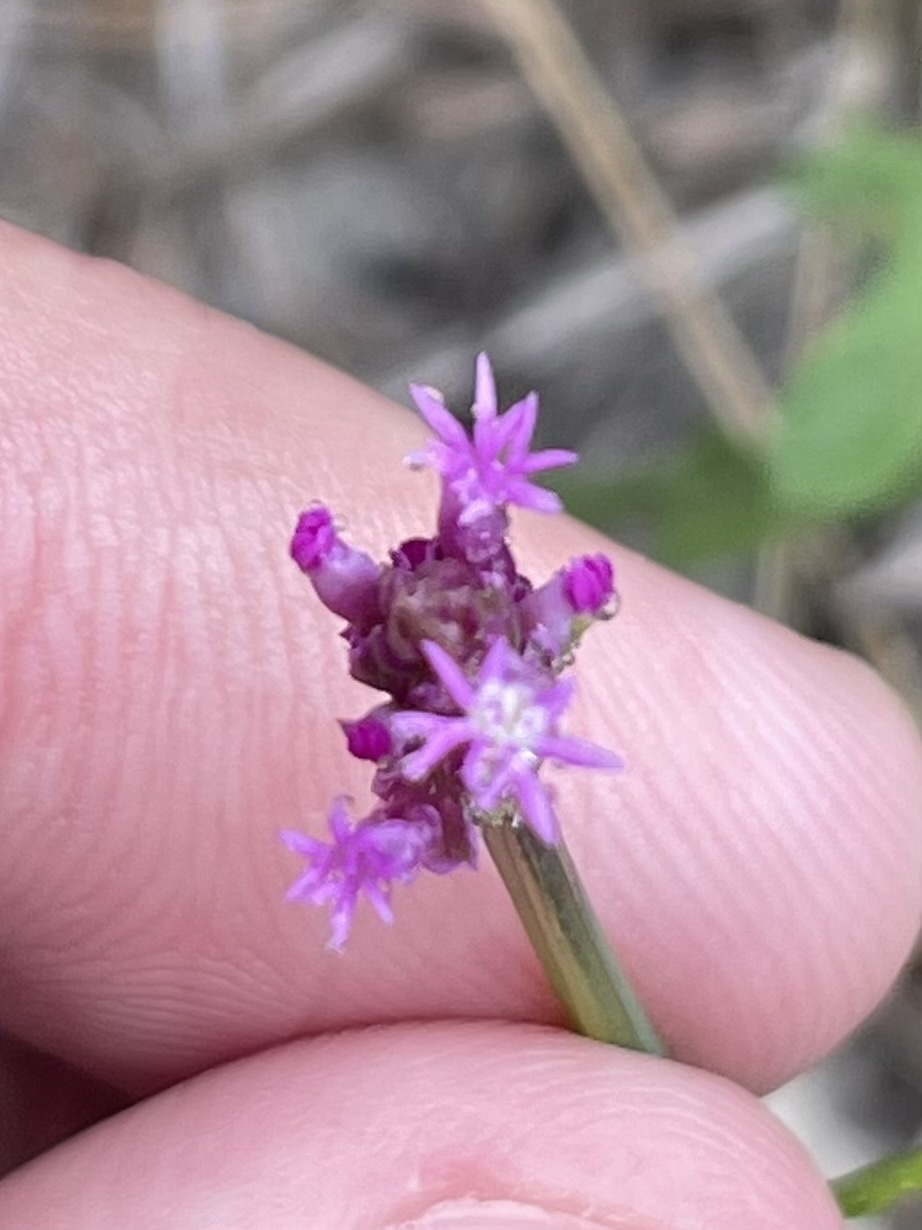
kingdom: Plantae
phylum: Tracheophyta
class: Magnoliopsida
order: Fabales
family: Polygalaceae
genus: Polygala
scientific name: Polygala incarnata
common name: Pink milkwort
